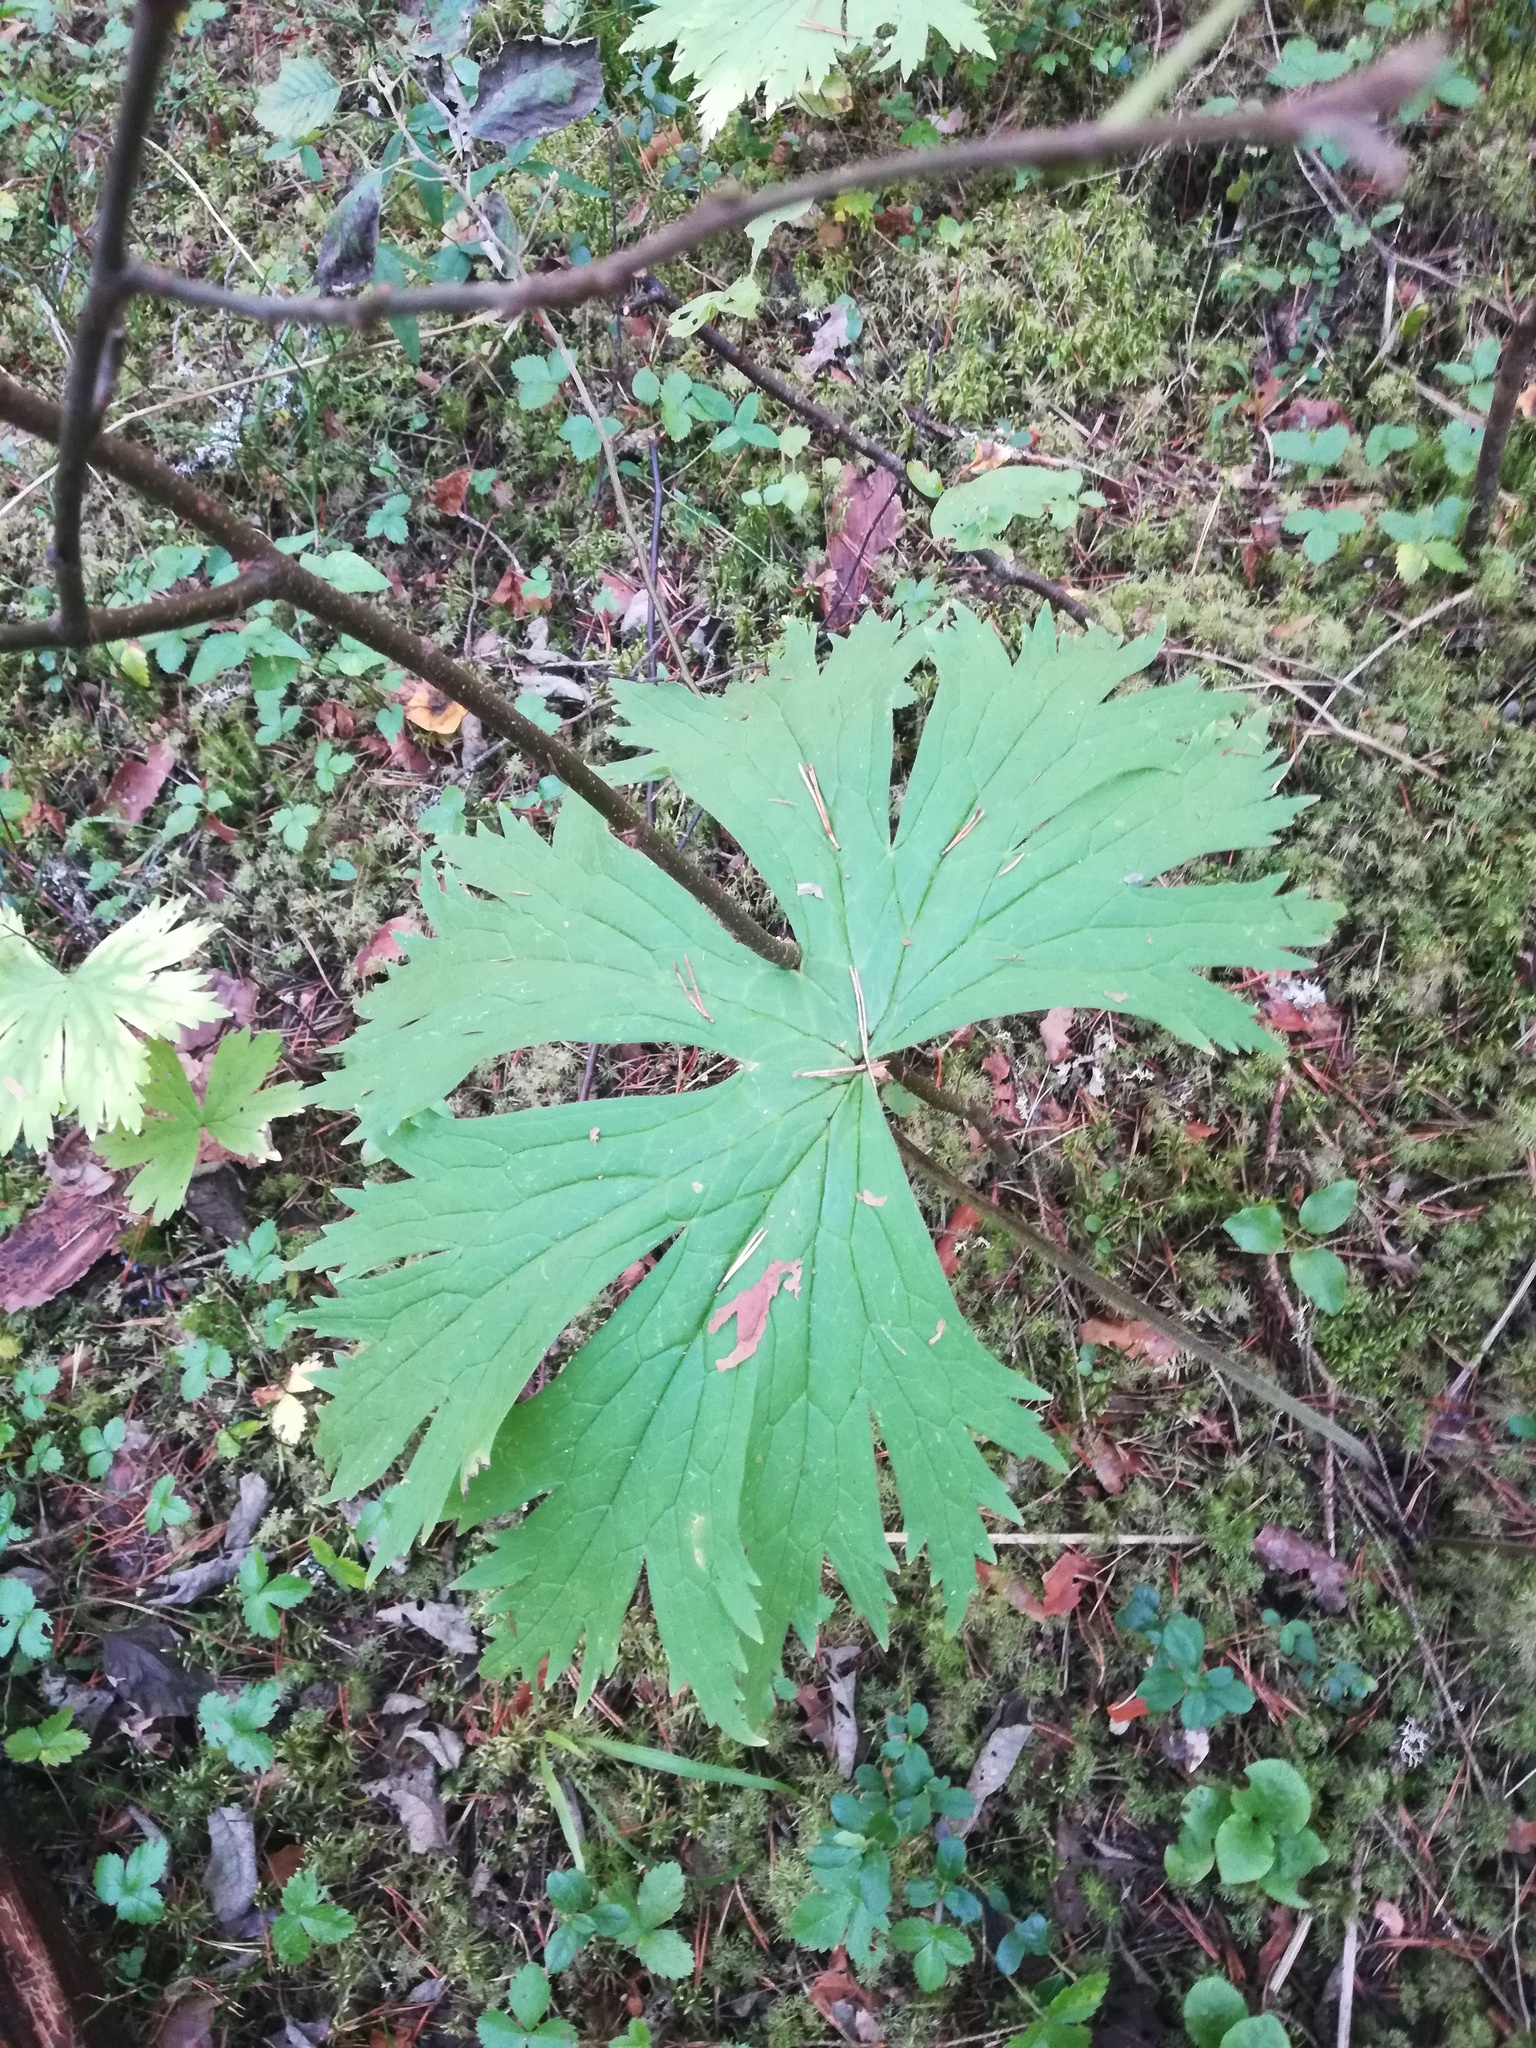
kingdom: Plantae
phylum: Tracheophyta
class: Magnoliopsida
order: Ranunculales
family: Ranunculaceae
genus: Aconitum
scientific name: Aconitum septentrionale
